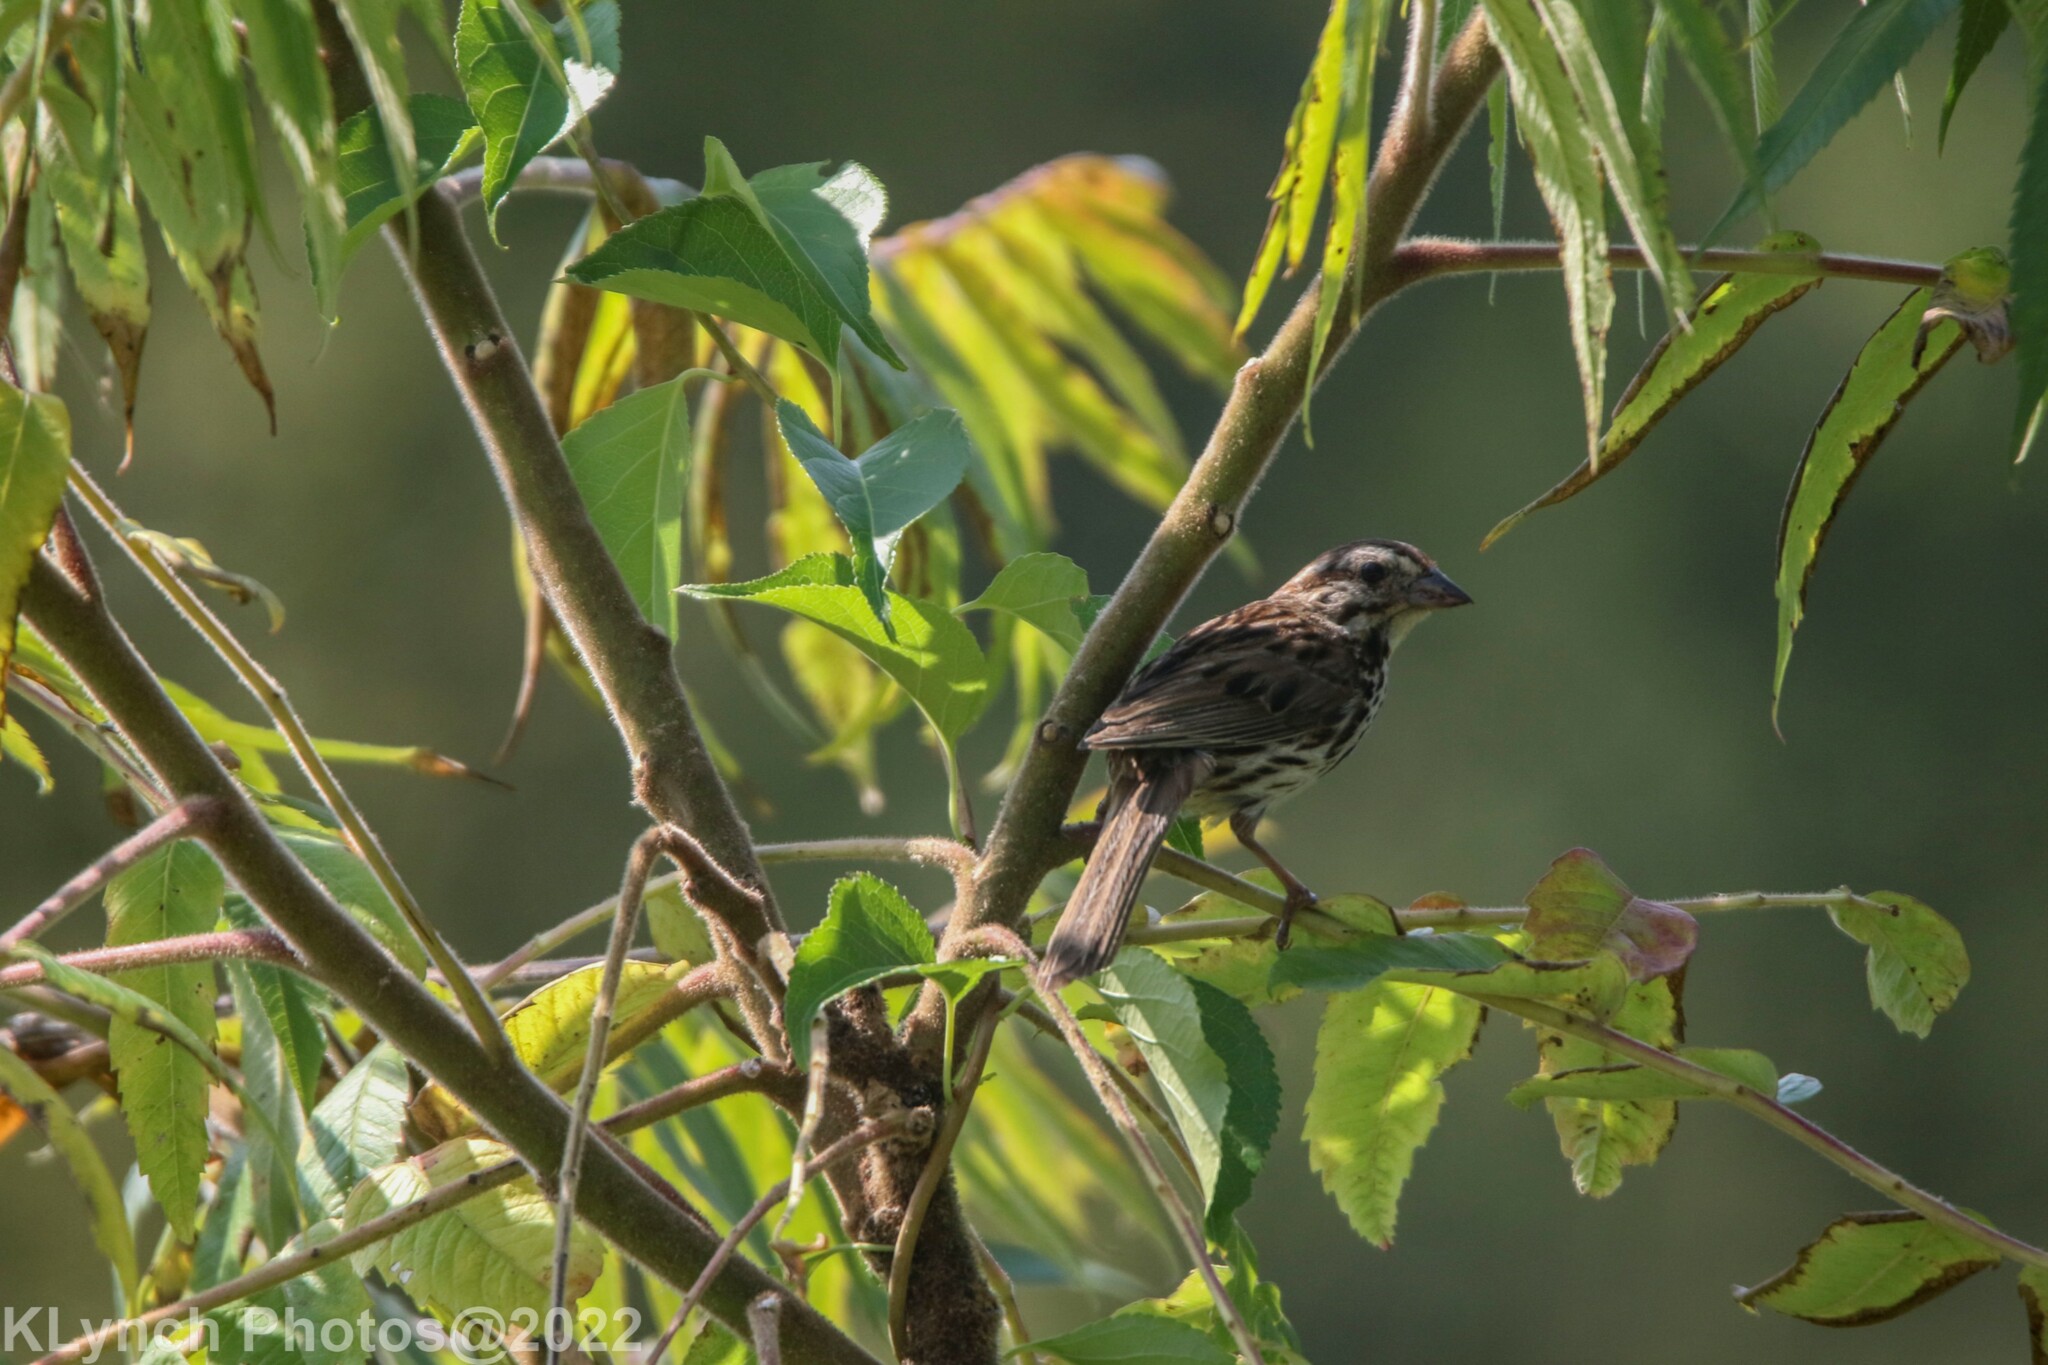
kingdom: Animalia
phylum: Chordata
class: Aves
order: Passeriformes
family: Passerellidae
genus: Melospiza
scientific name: Melospiza melodia
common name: Song sparrow
